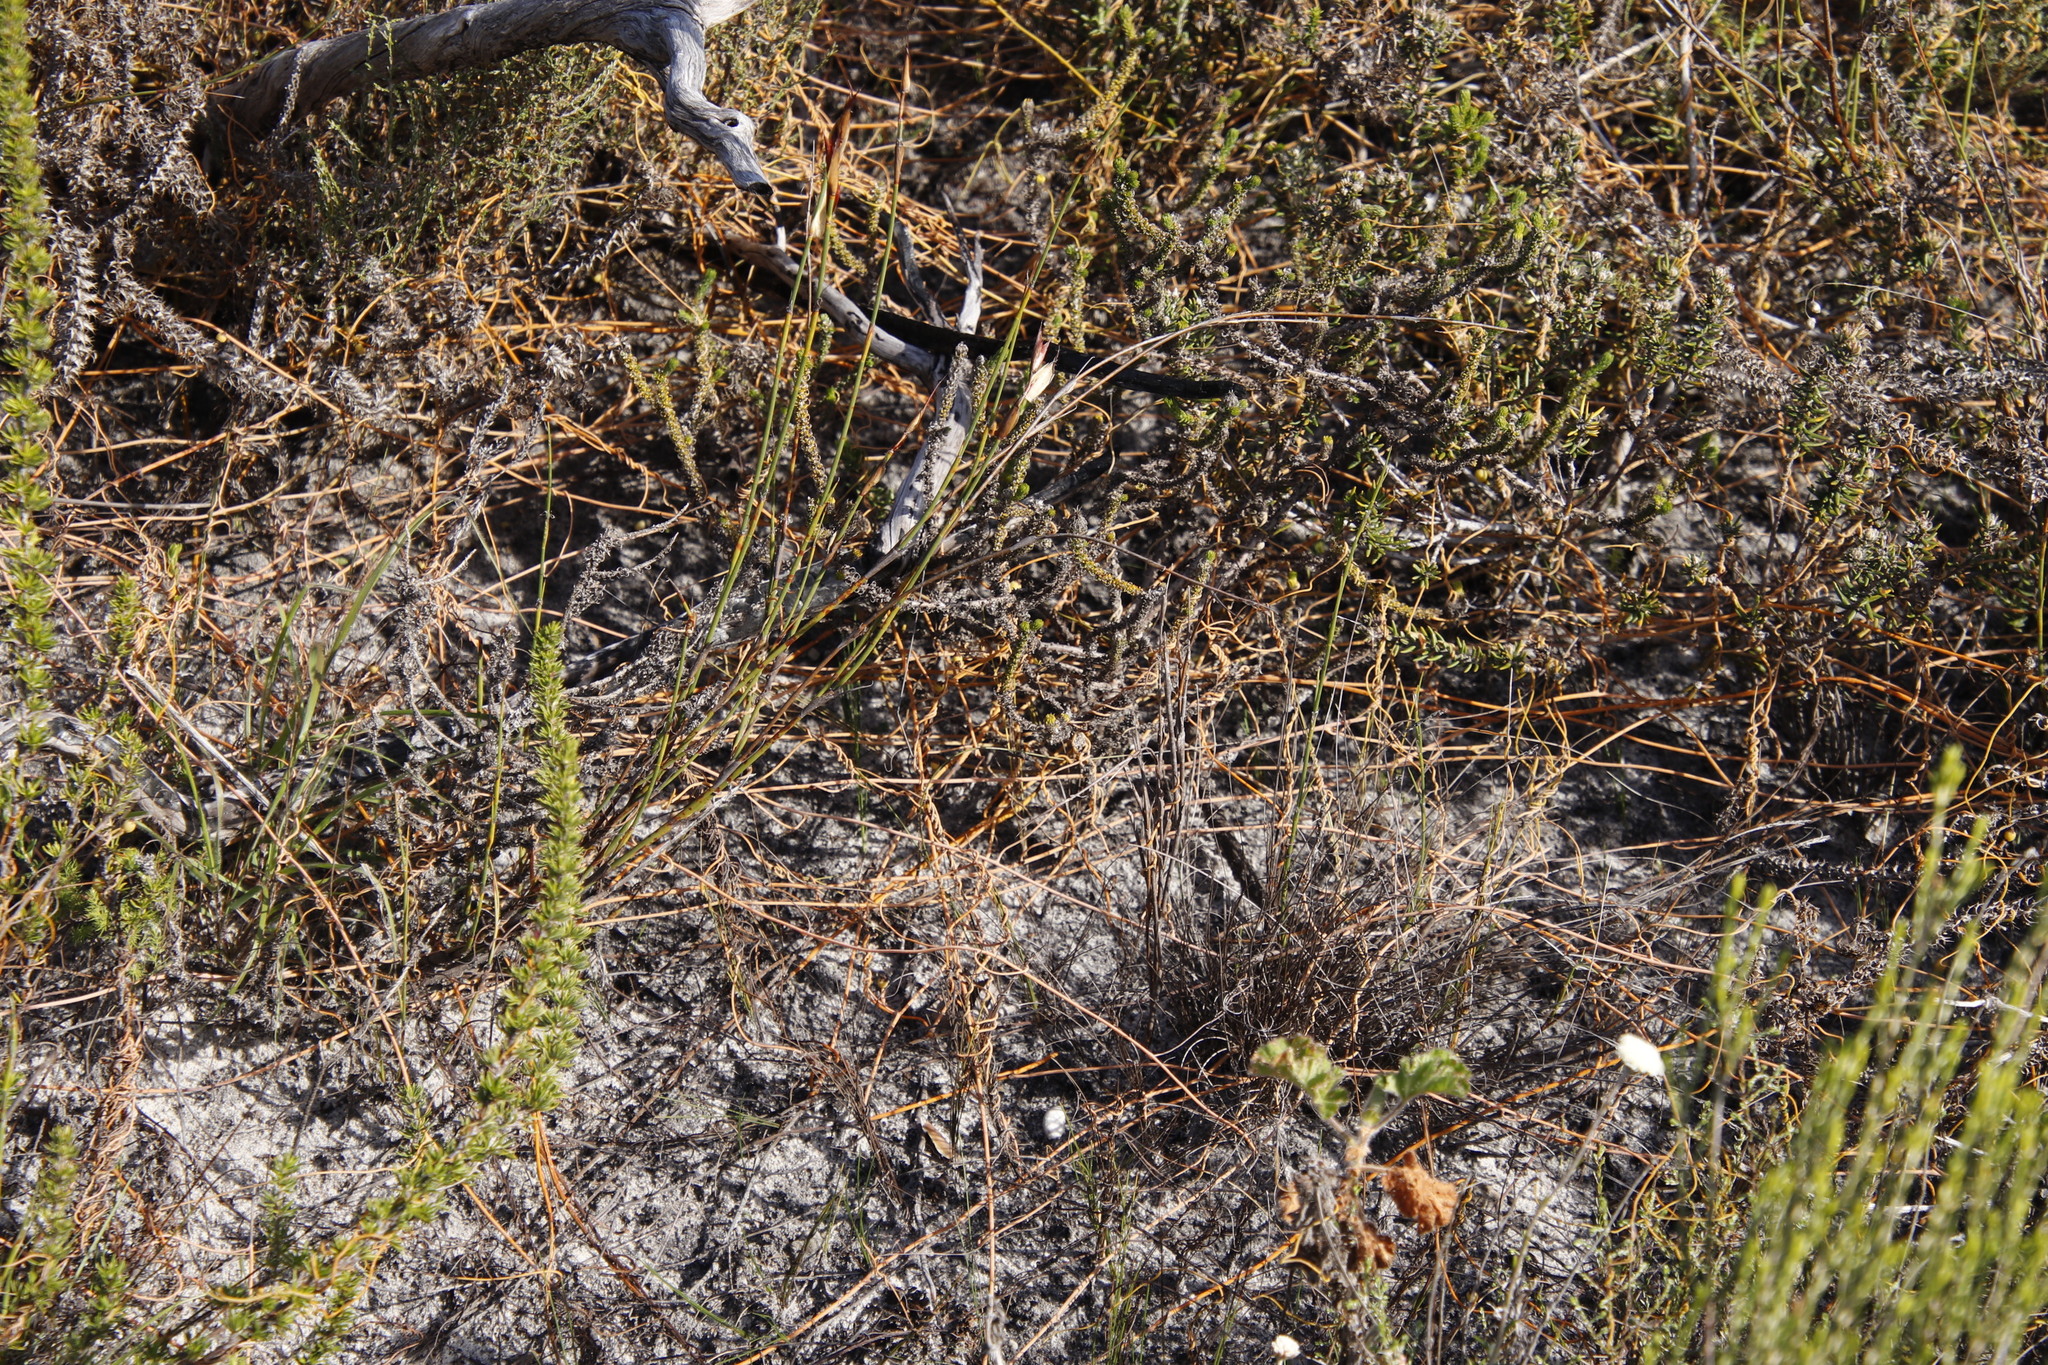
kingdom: Plantae
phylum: Tracheophyta
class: Magnoliopsida
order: Laurales
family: Lauraceae
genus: Cassytha
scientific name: Cassytha ciliolata
